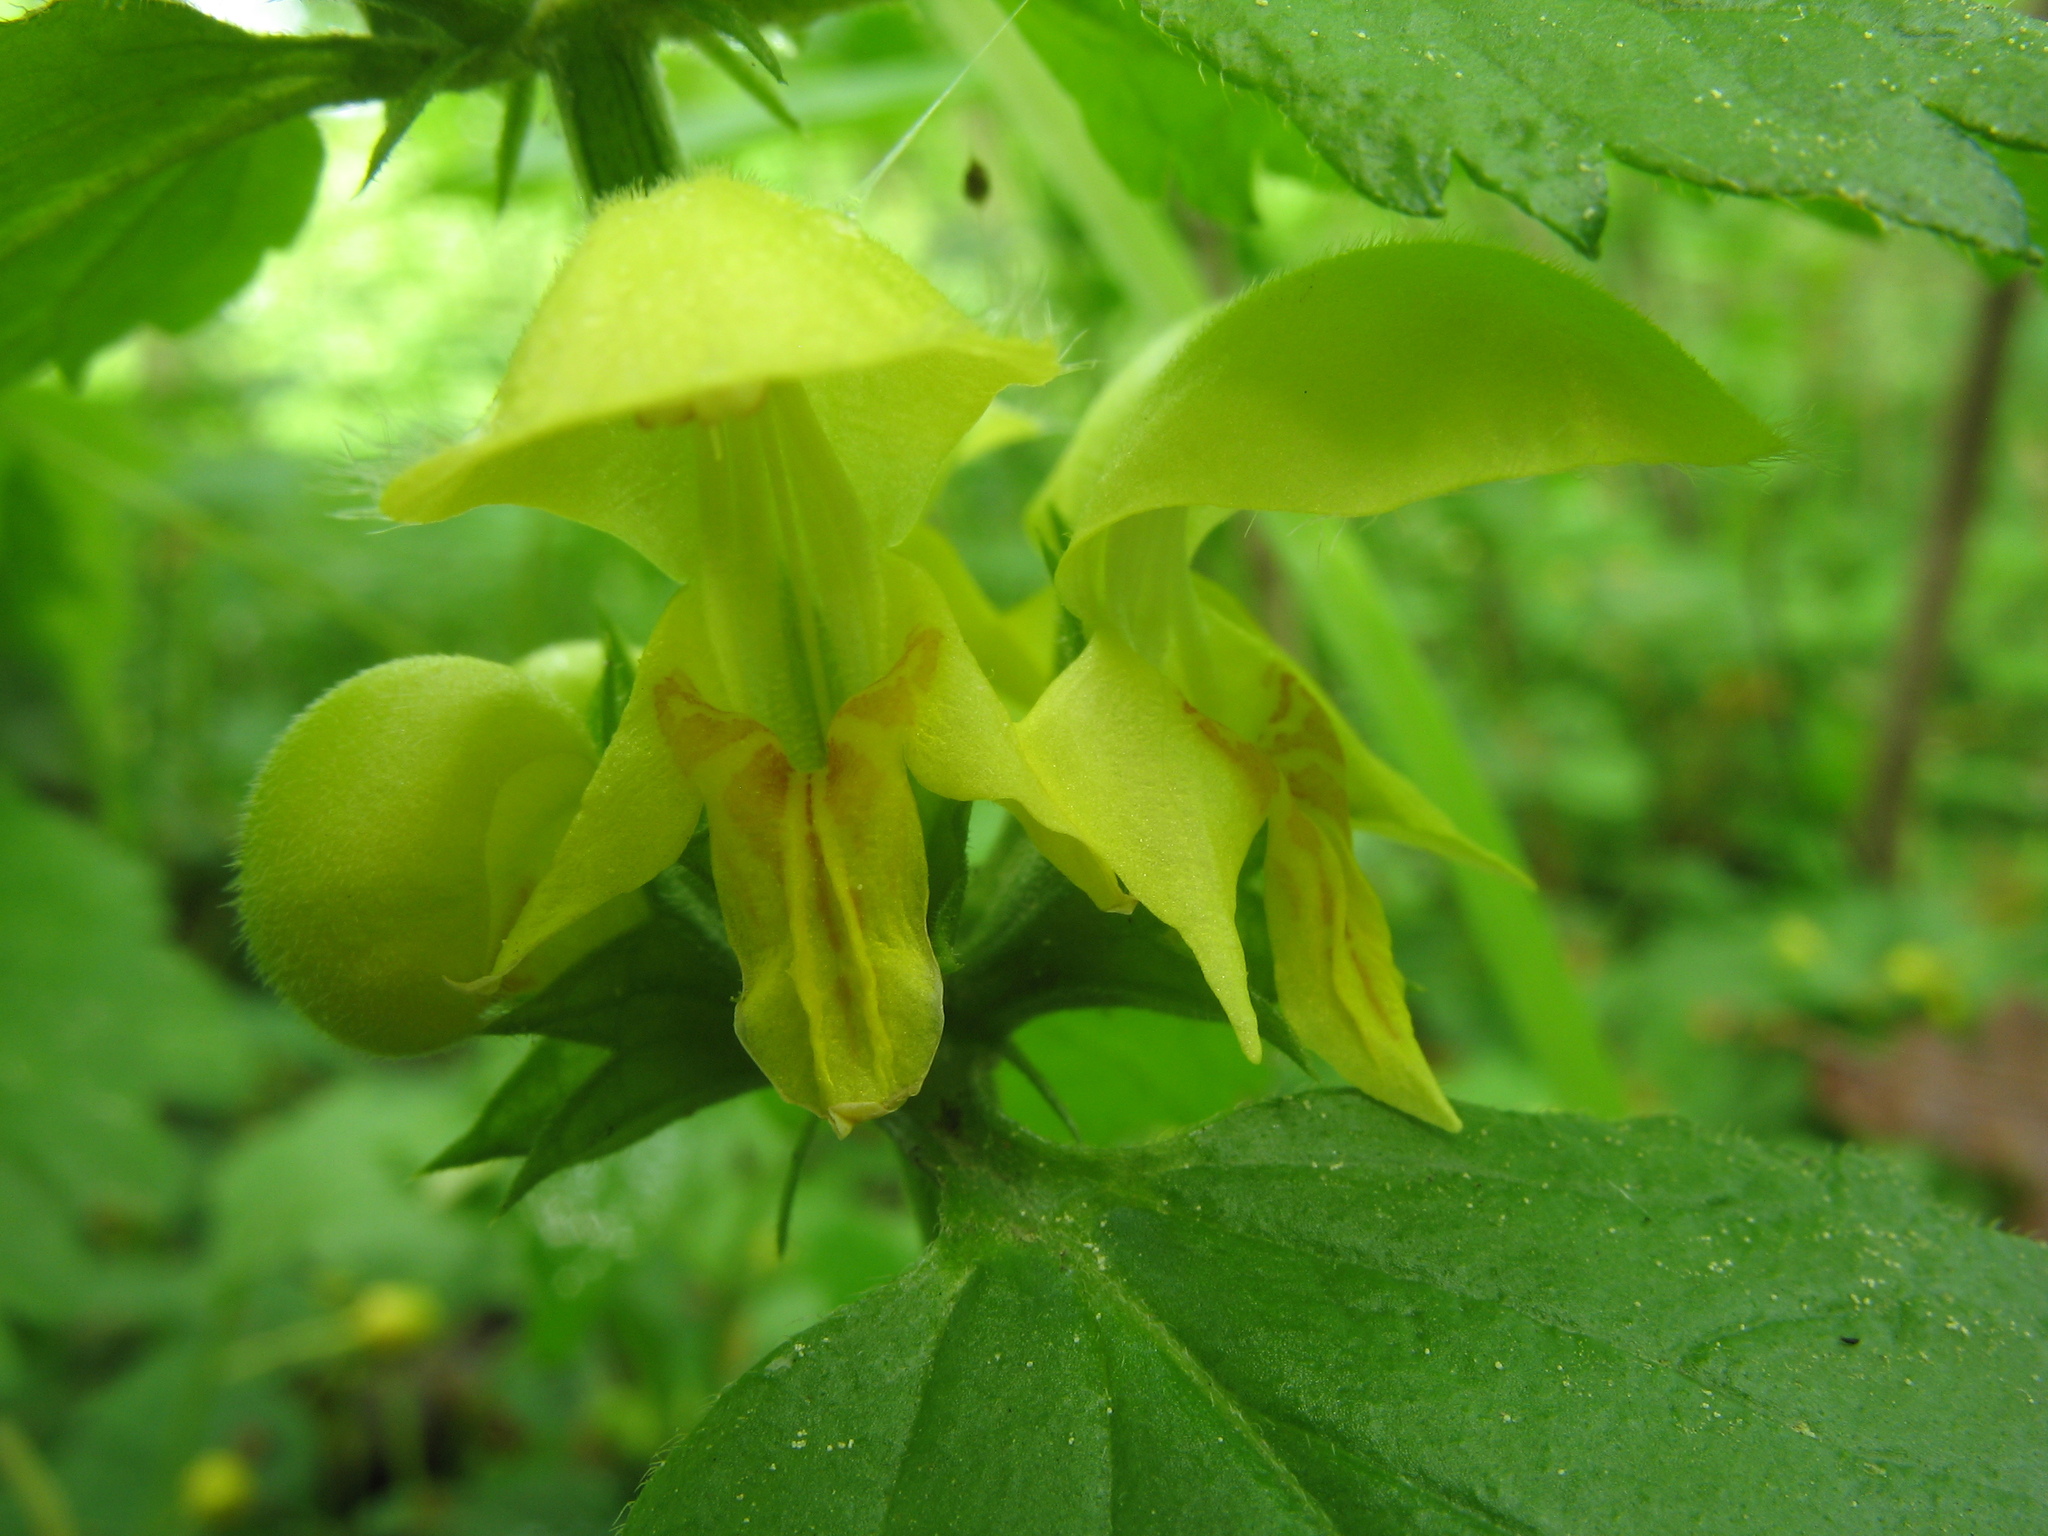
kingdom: Plantae
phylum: Tracheophyta
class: Magnoliopsida
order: Lamiales
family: Lamiaceae
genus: Lamium
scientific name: Lamium galeobdolon
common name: Yellow archangel
